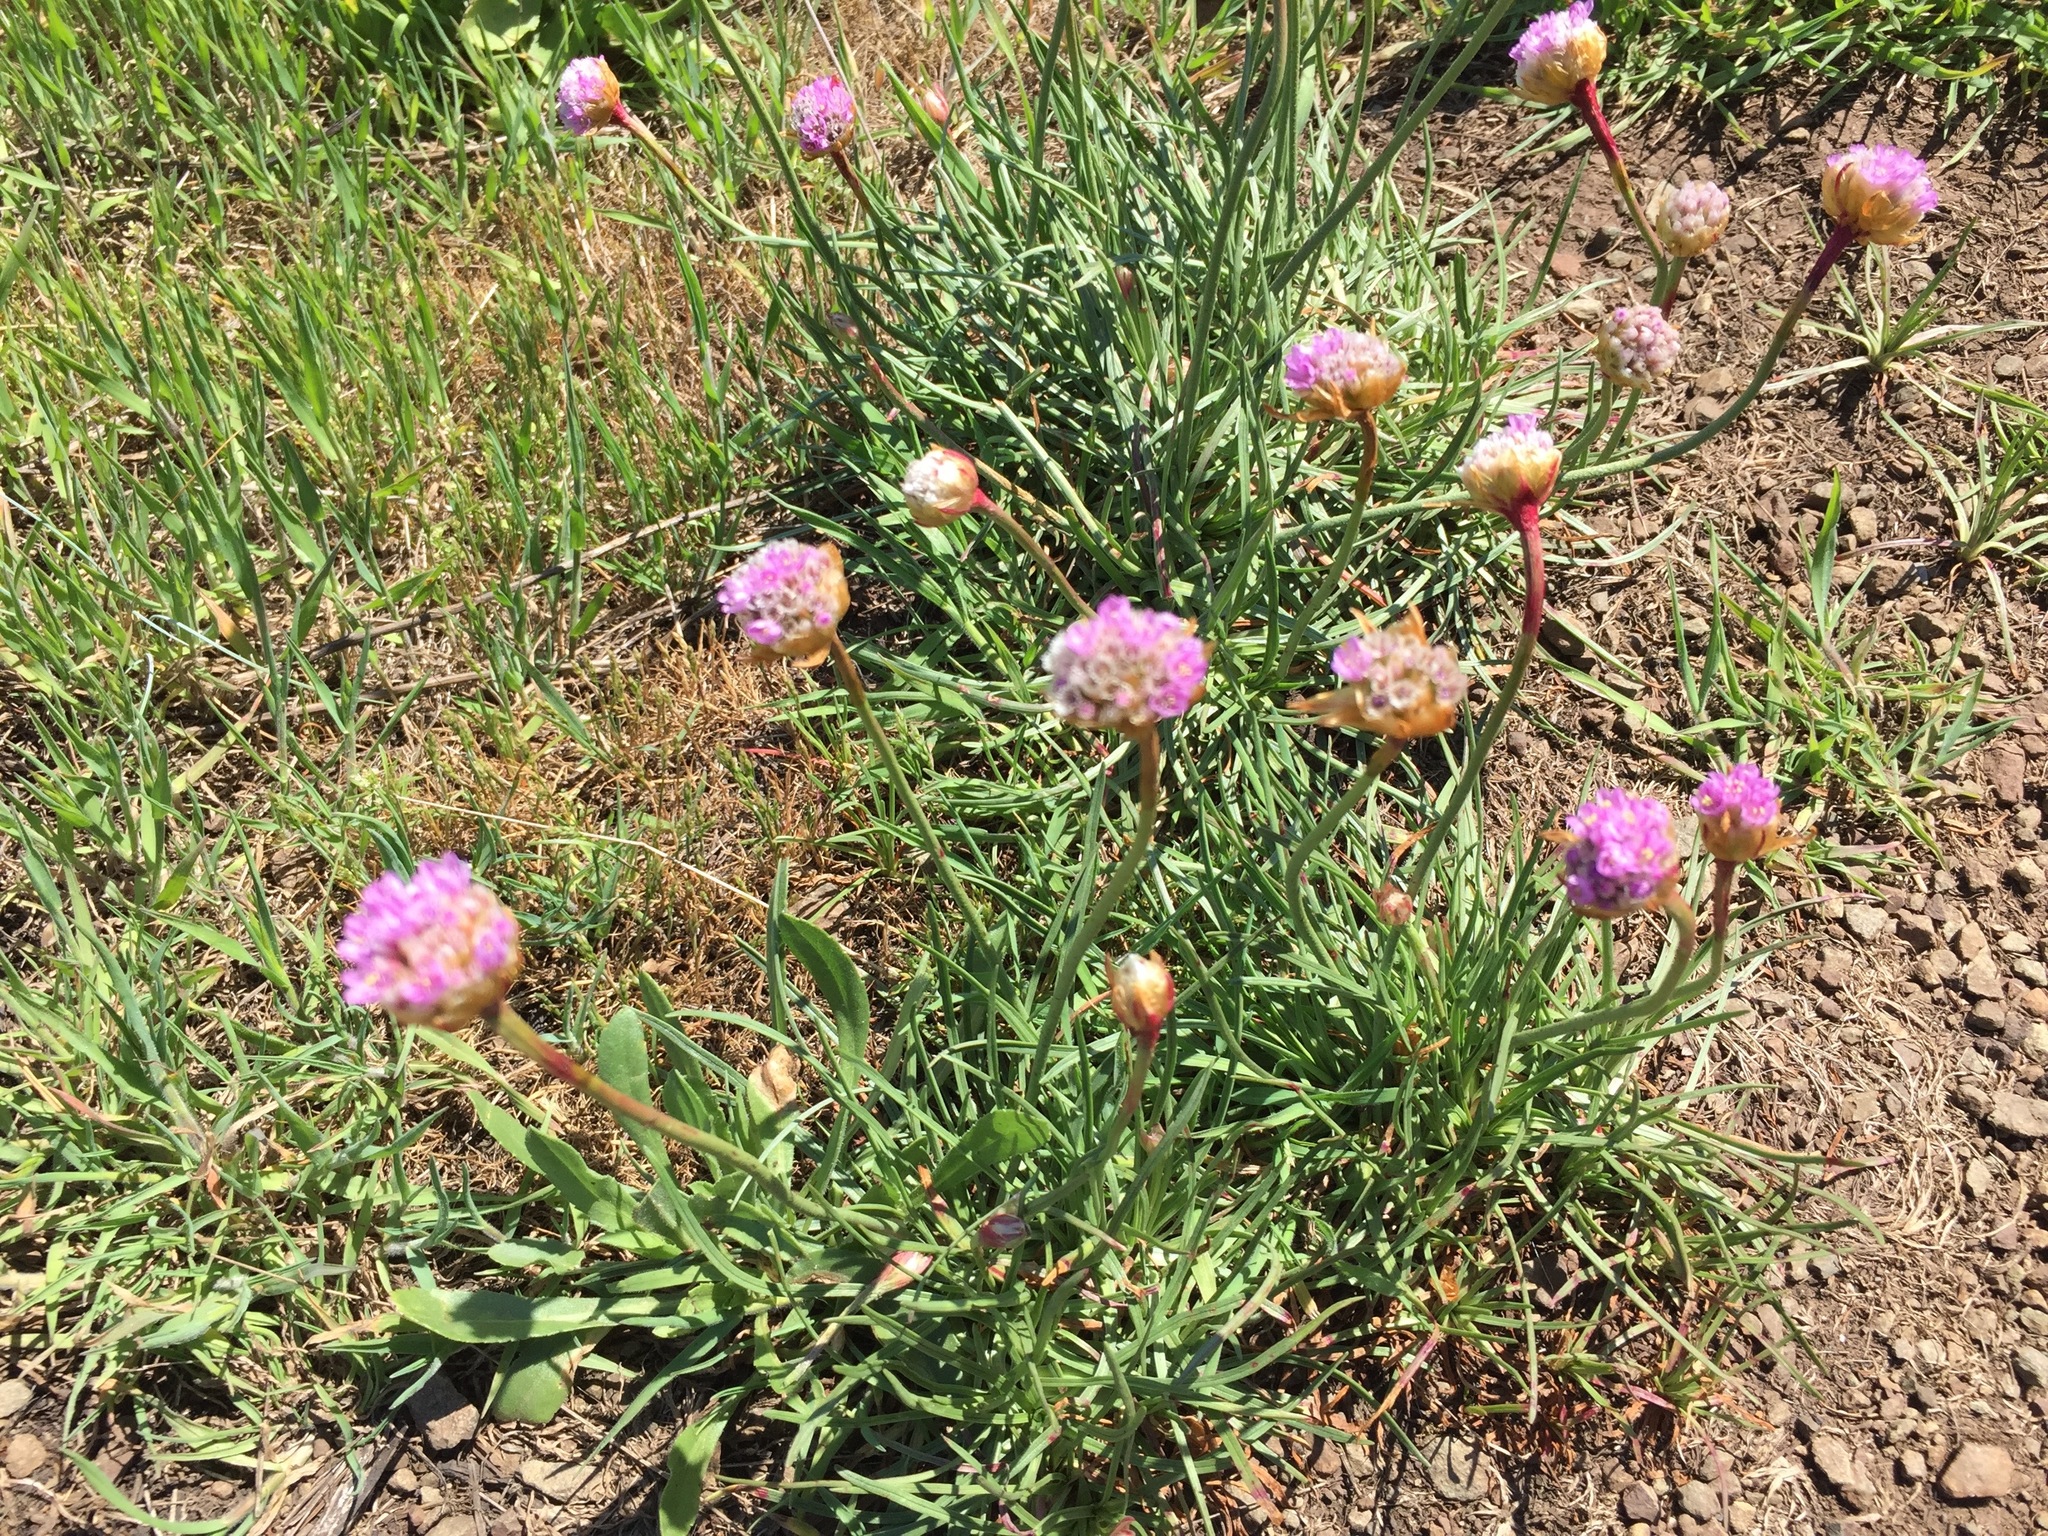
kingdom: Plantae
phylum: Tracheophyta
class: Magnoliopsida
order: Caryophyllales
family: Plumbaginaceae
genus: Armeria
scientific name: Armeria maritima
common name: Thrift
